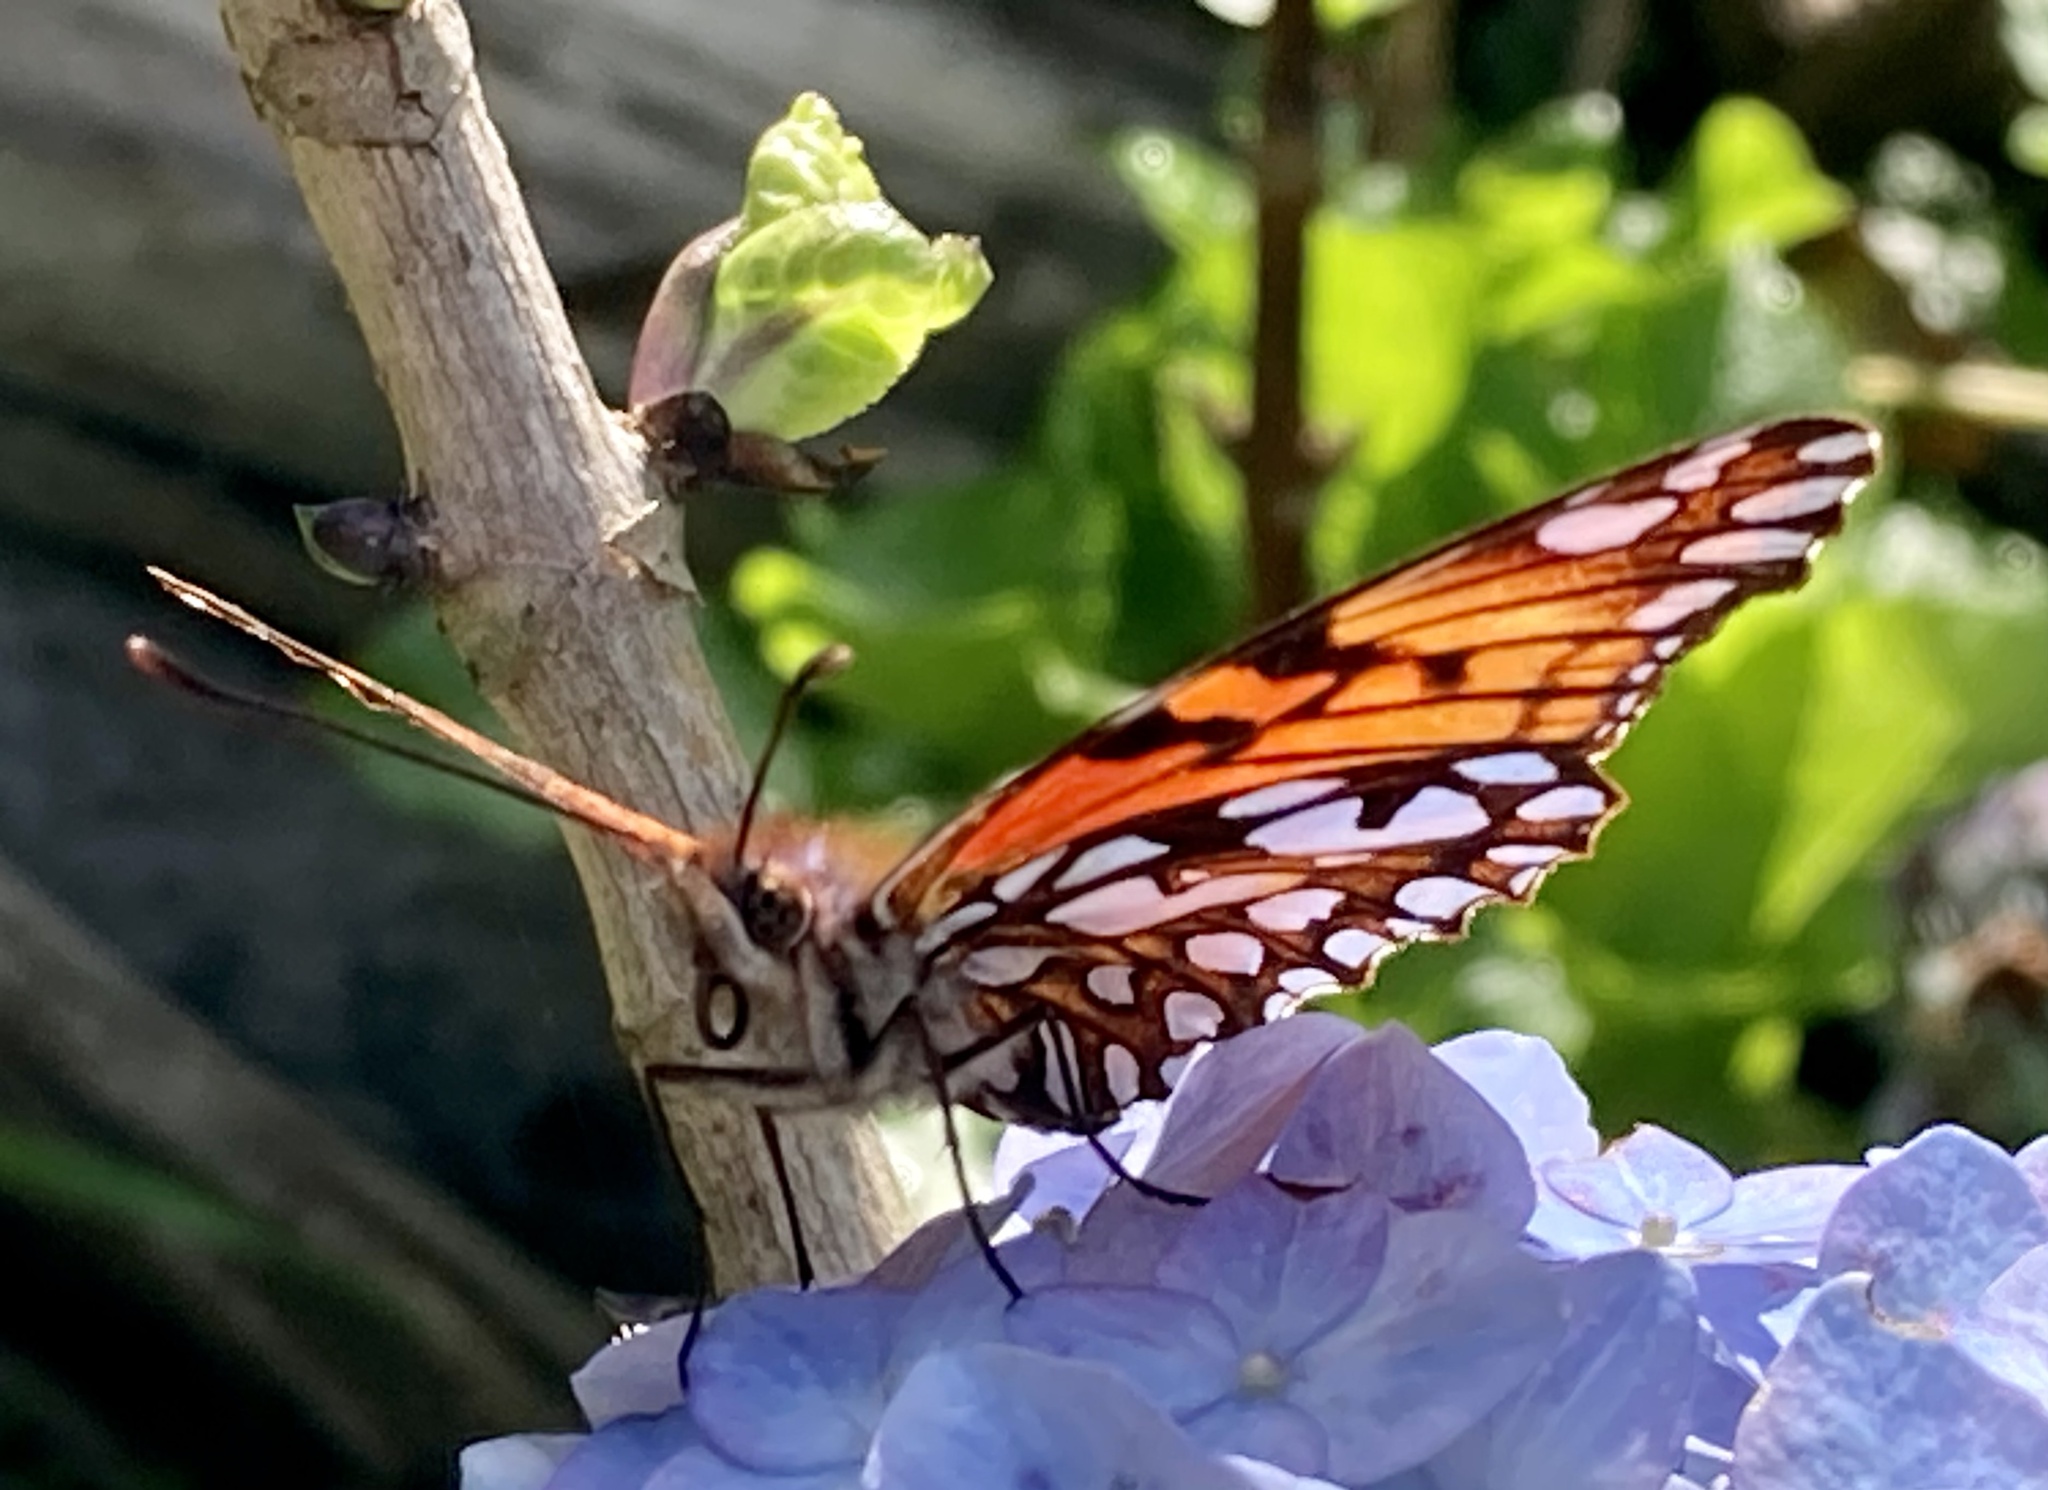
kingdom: Animalia
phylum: Arthropoda
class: Insecta
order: Lepidoptera
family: Nymphalidae
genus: Dione
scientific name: Dione glycera
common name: Andean silverspot
